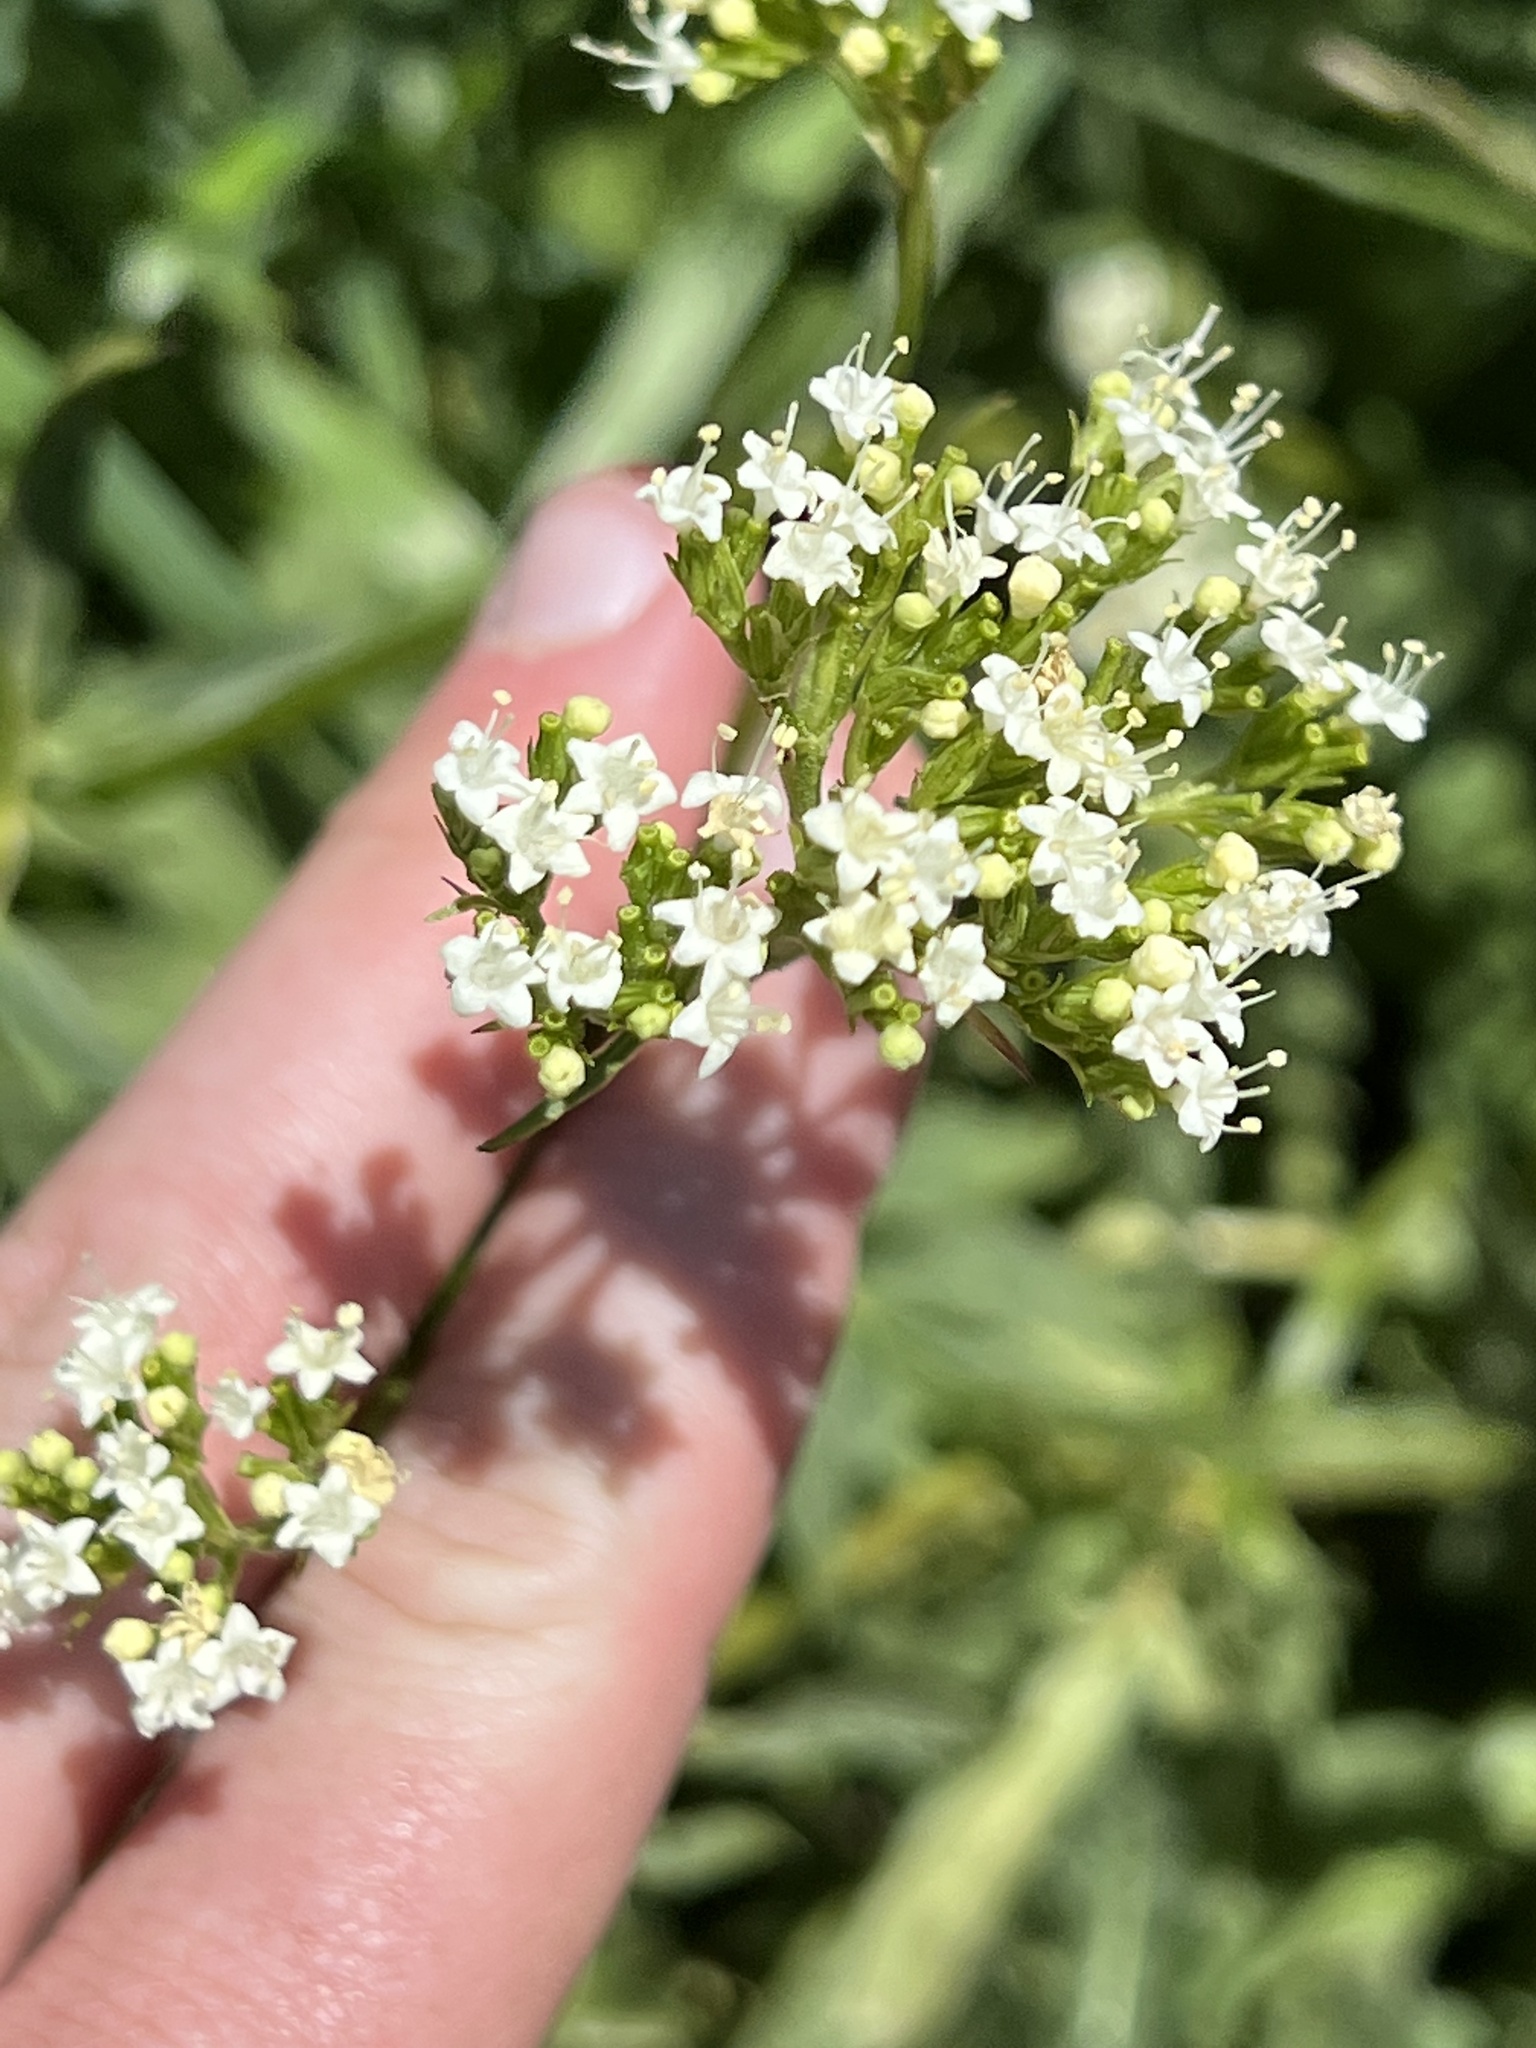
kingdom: Plantae
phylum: Tracheophyta
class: Magnoliopsida
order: Dipsacales
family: Caprifoliaceae
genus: Valeriana
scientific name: Valeriana occidentalis
